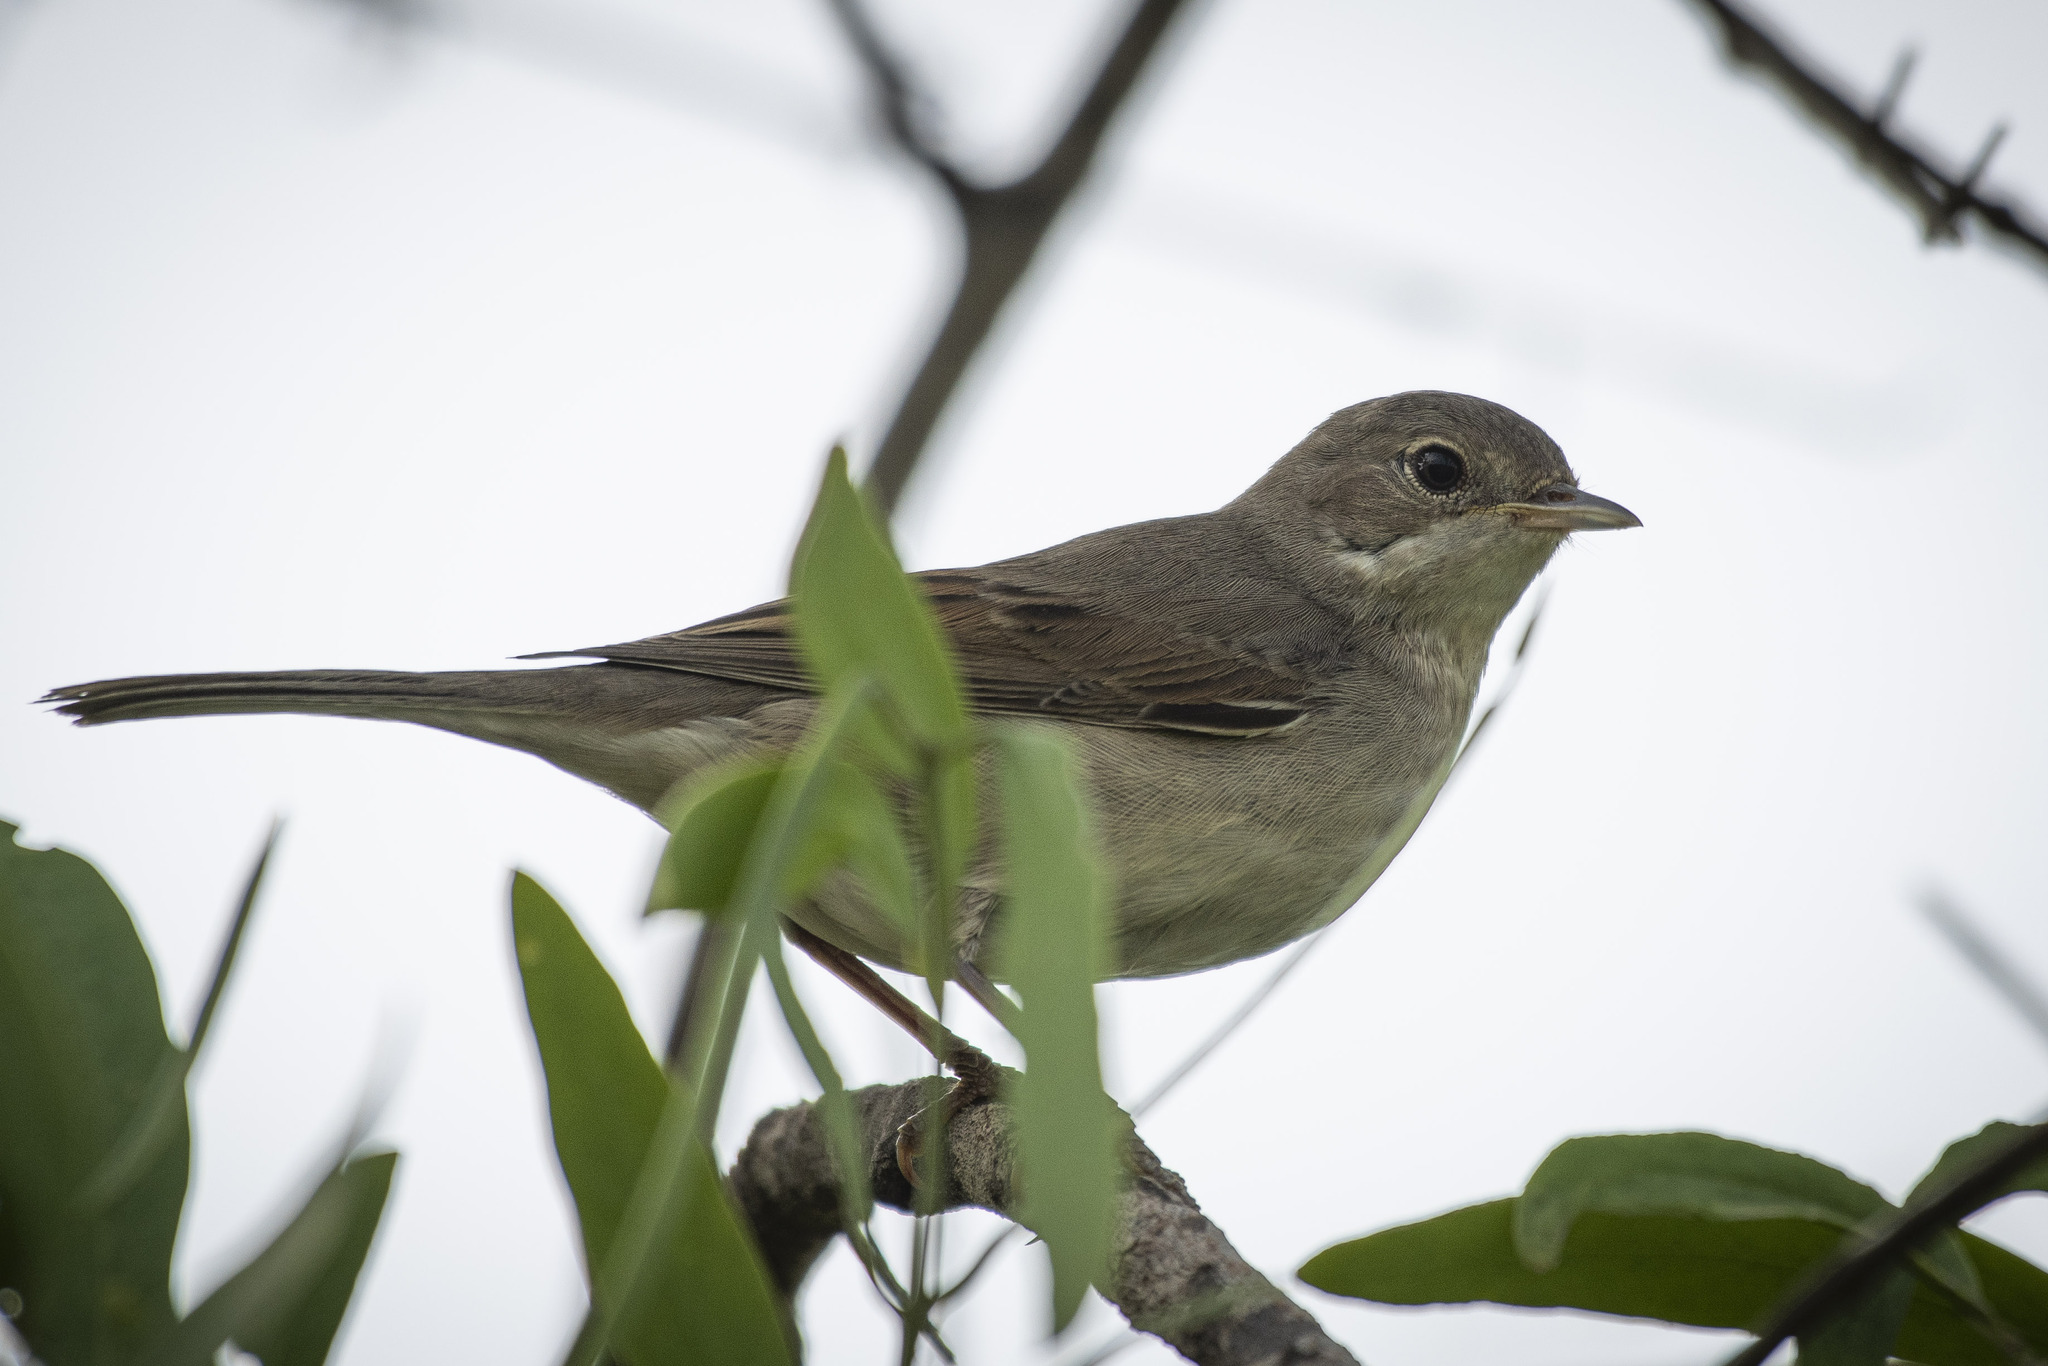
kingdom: Animalia
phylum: Chordata
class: Aves
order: Passeriformes
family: Sylviidae
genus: Sylvia
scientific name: Sylvia communis
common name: Common whitethroat
